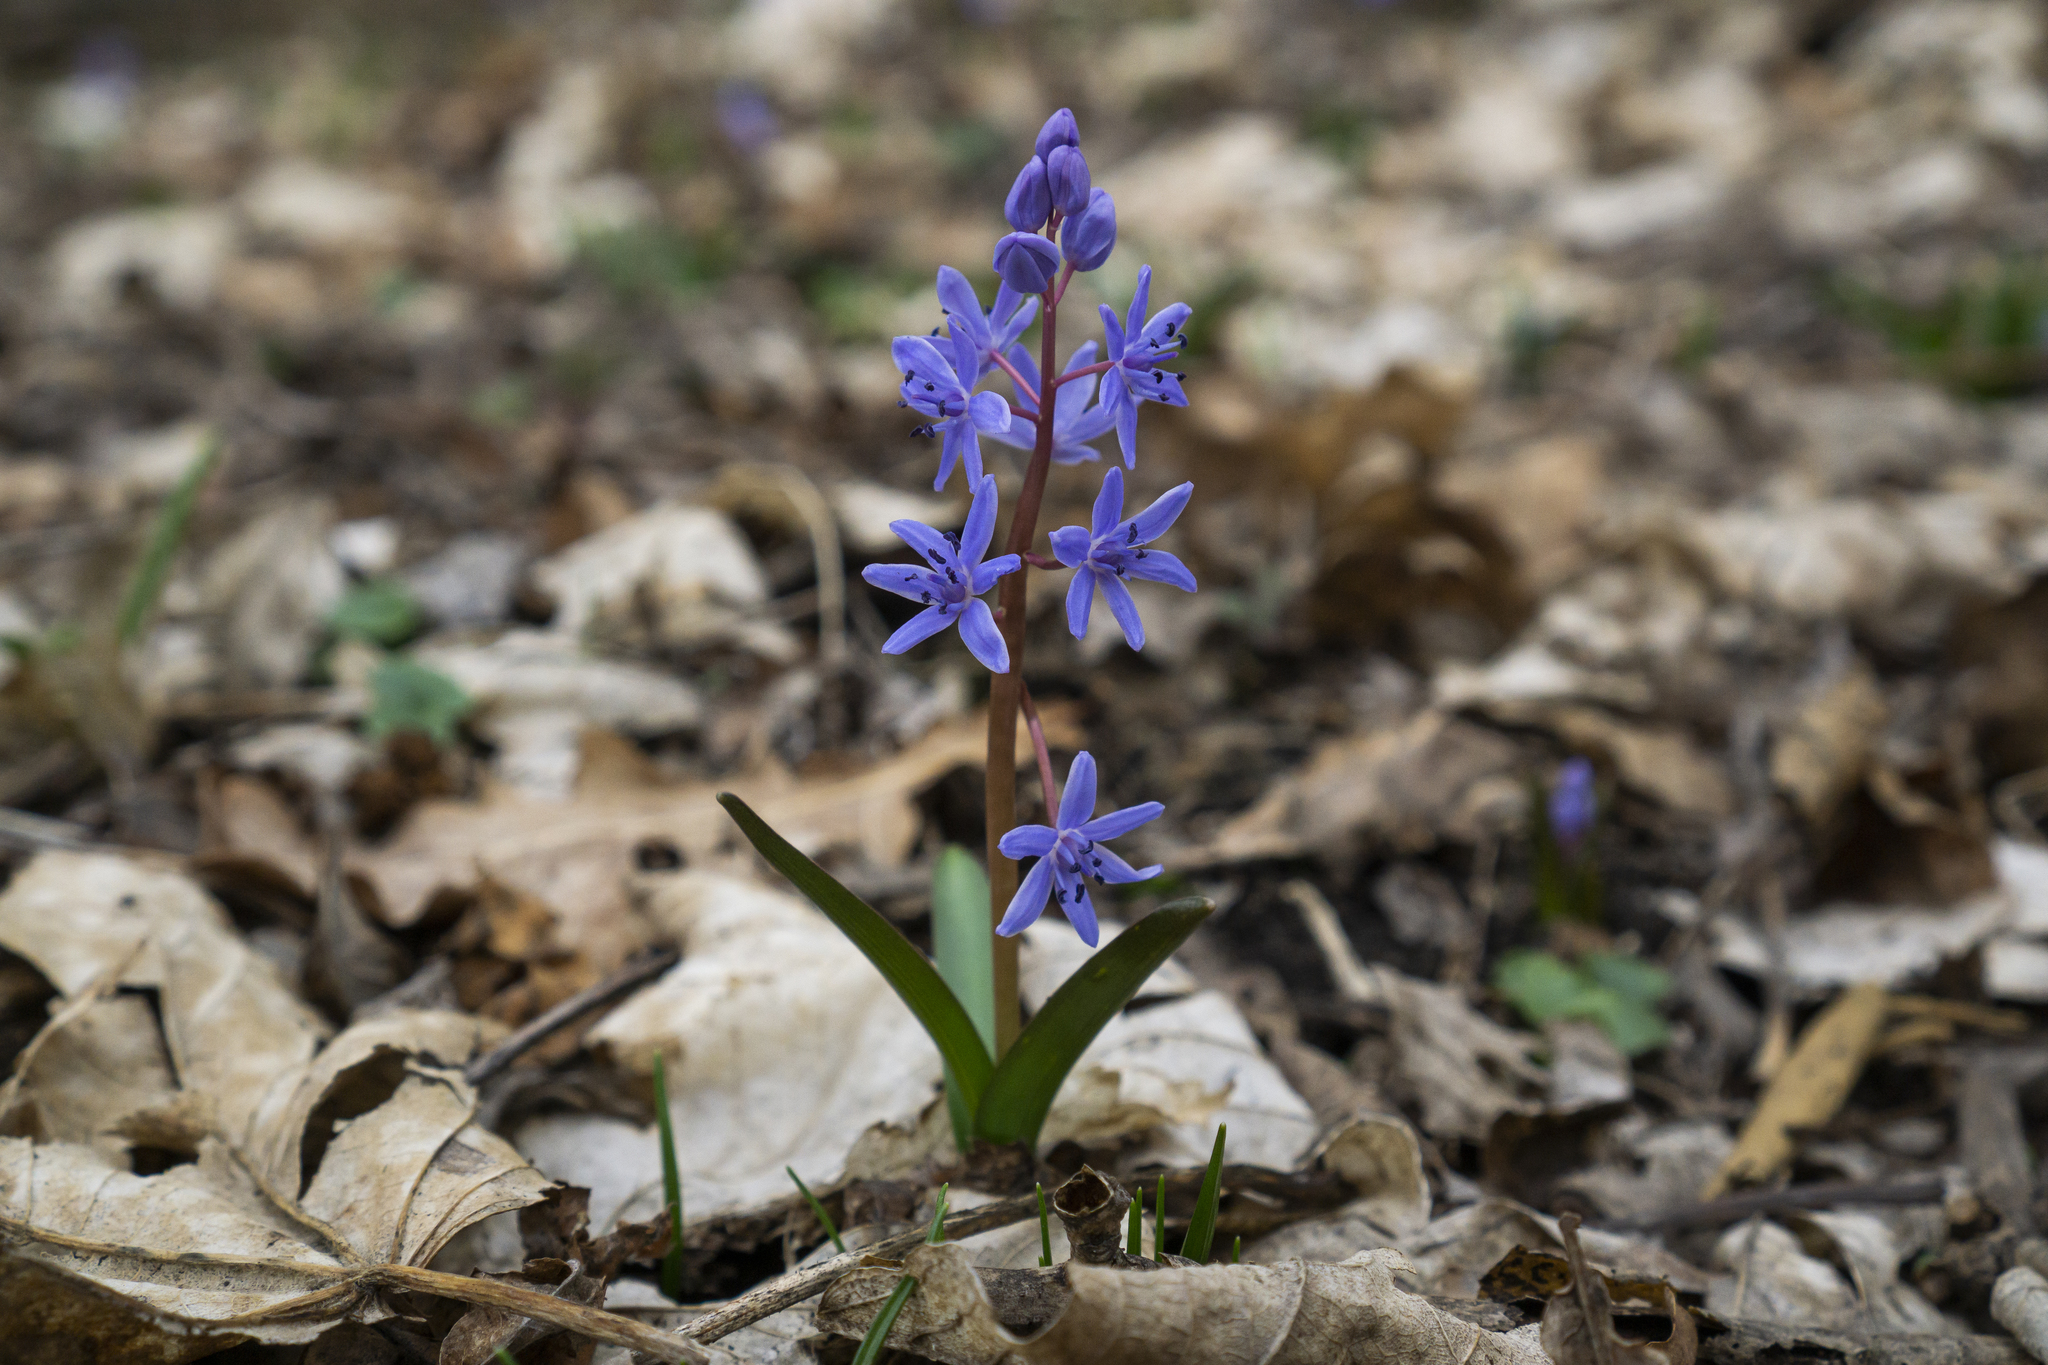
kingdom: Plantae
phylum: Tracheophyta
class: Liliopsida
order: Asparagales
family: Asparagaceae
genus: Scilla
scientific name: Scilla bifolia
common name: Alpine squill
